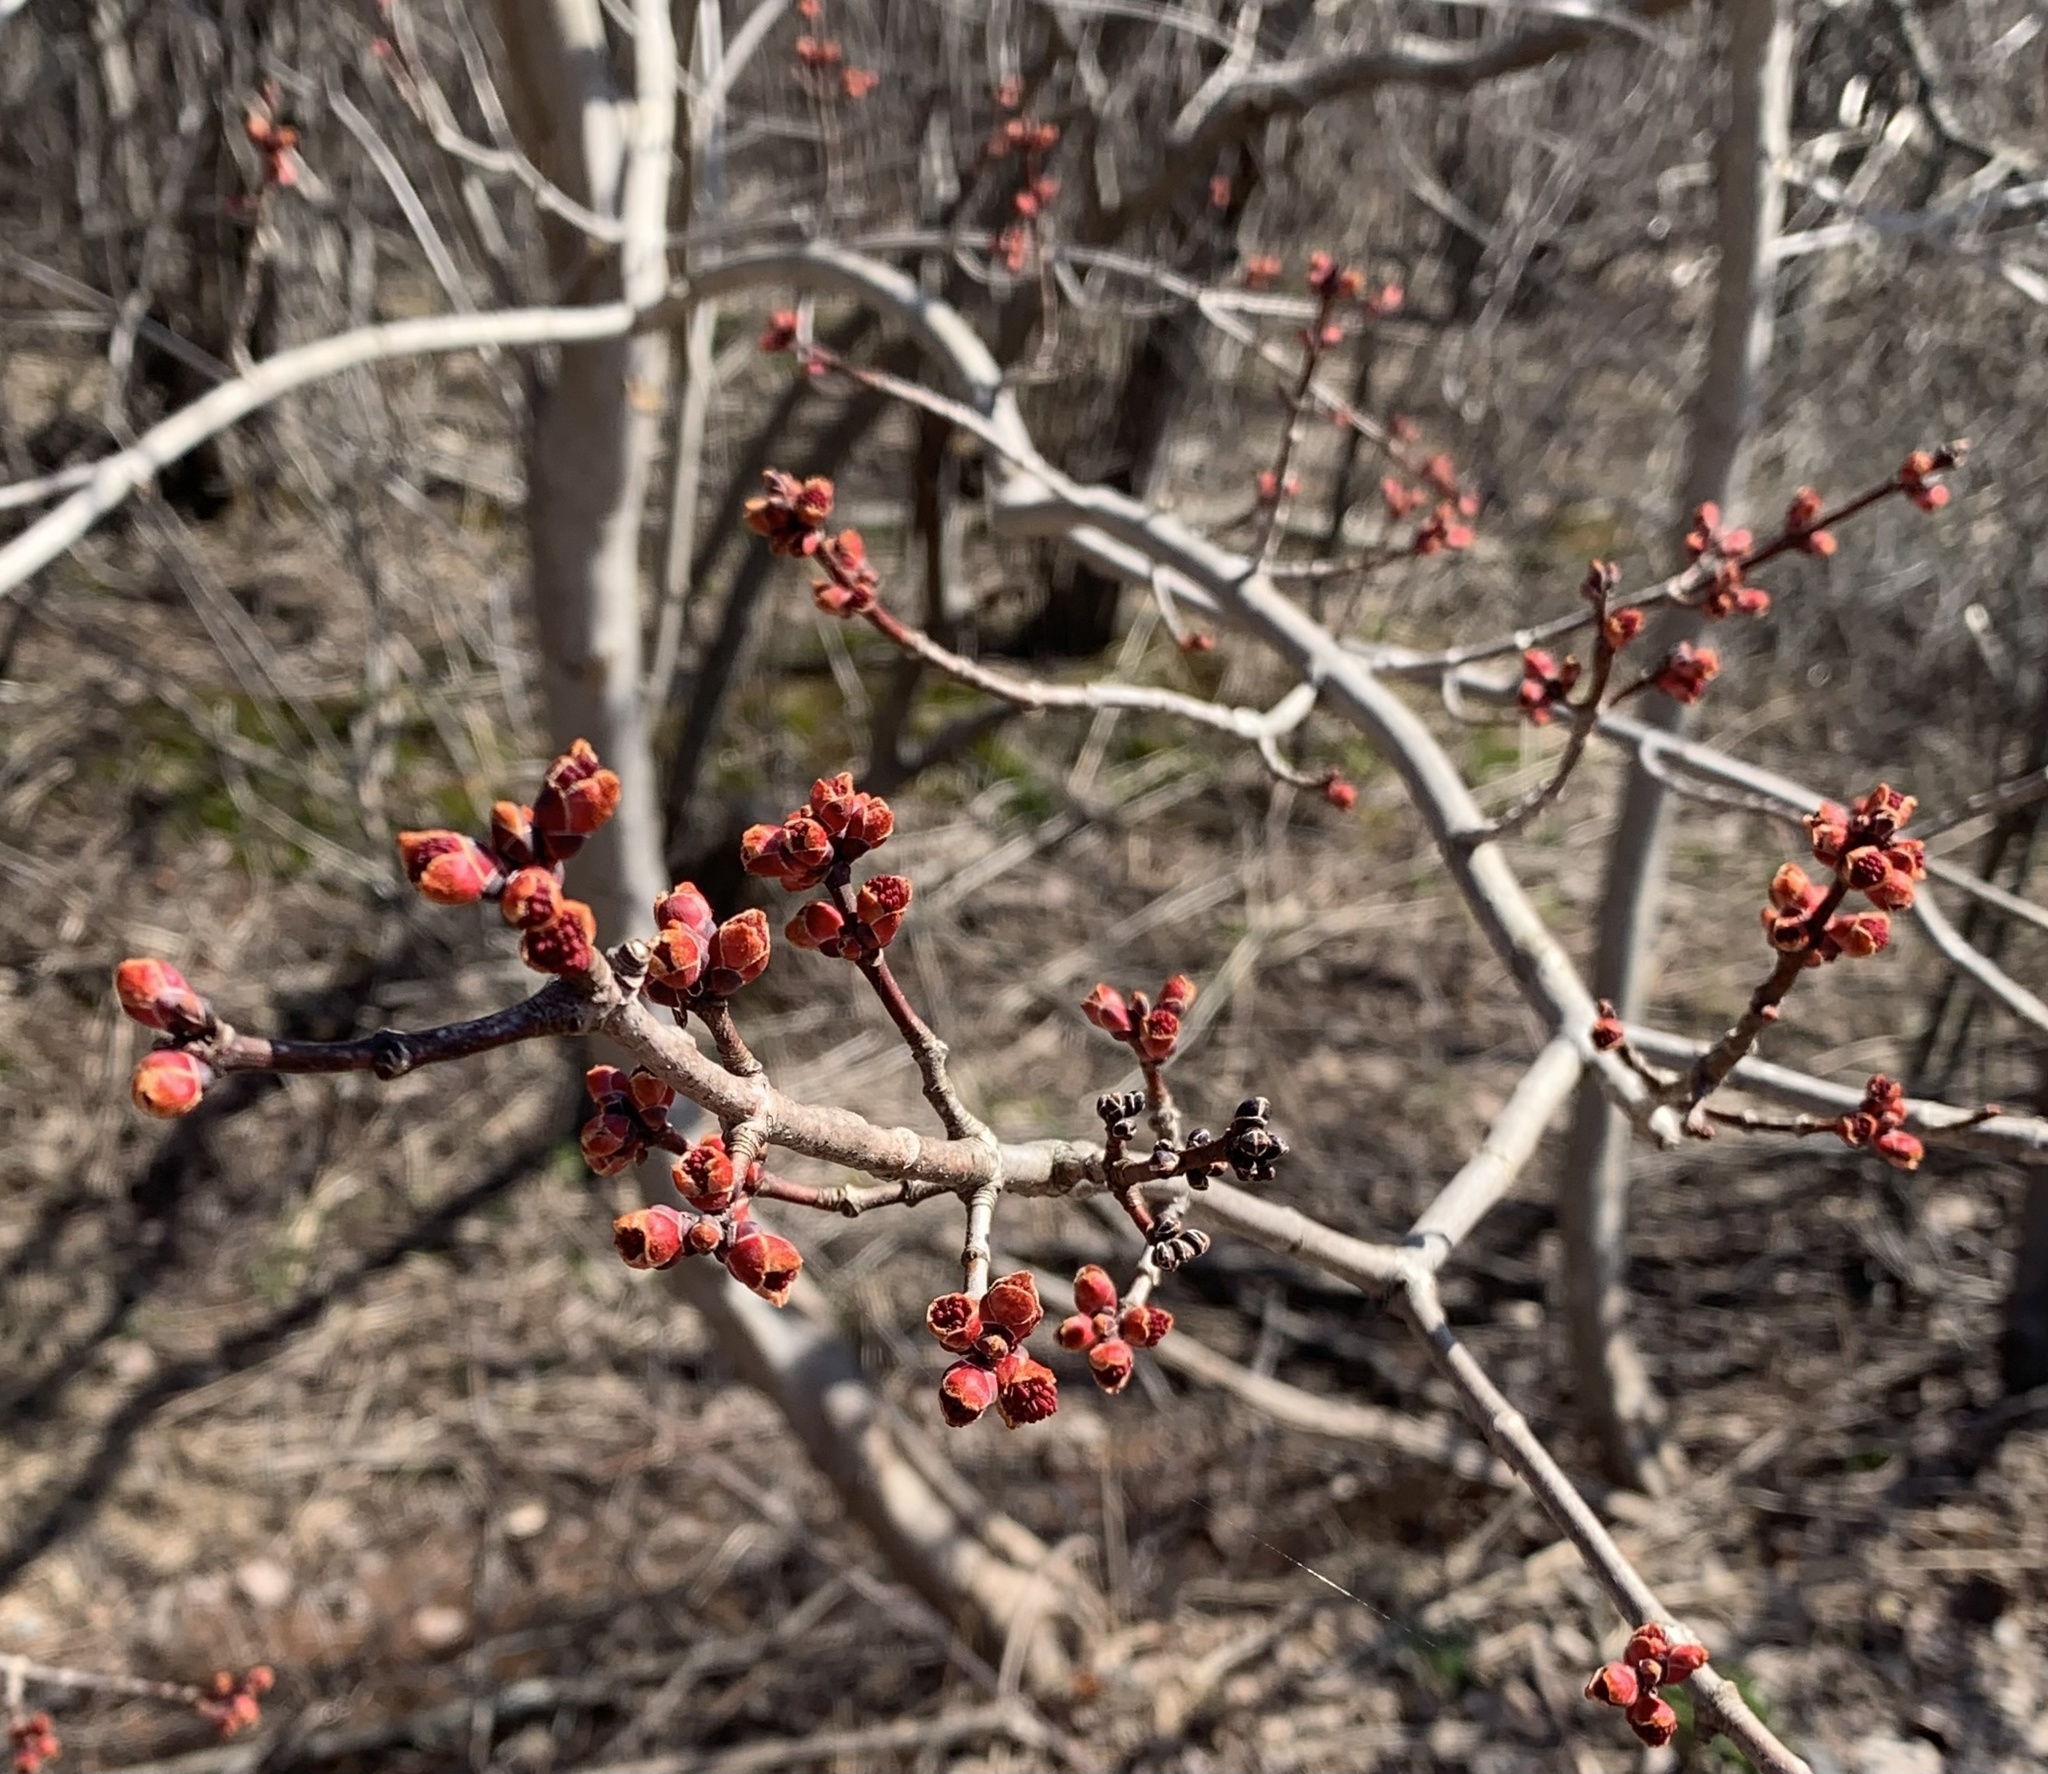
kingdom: Plantae
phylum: Tracheophyta
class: Magnoliopsida
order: Sapindales
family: Sapindaceae
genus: Acer
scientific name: Acer rubrum
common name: Red maple
